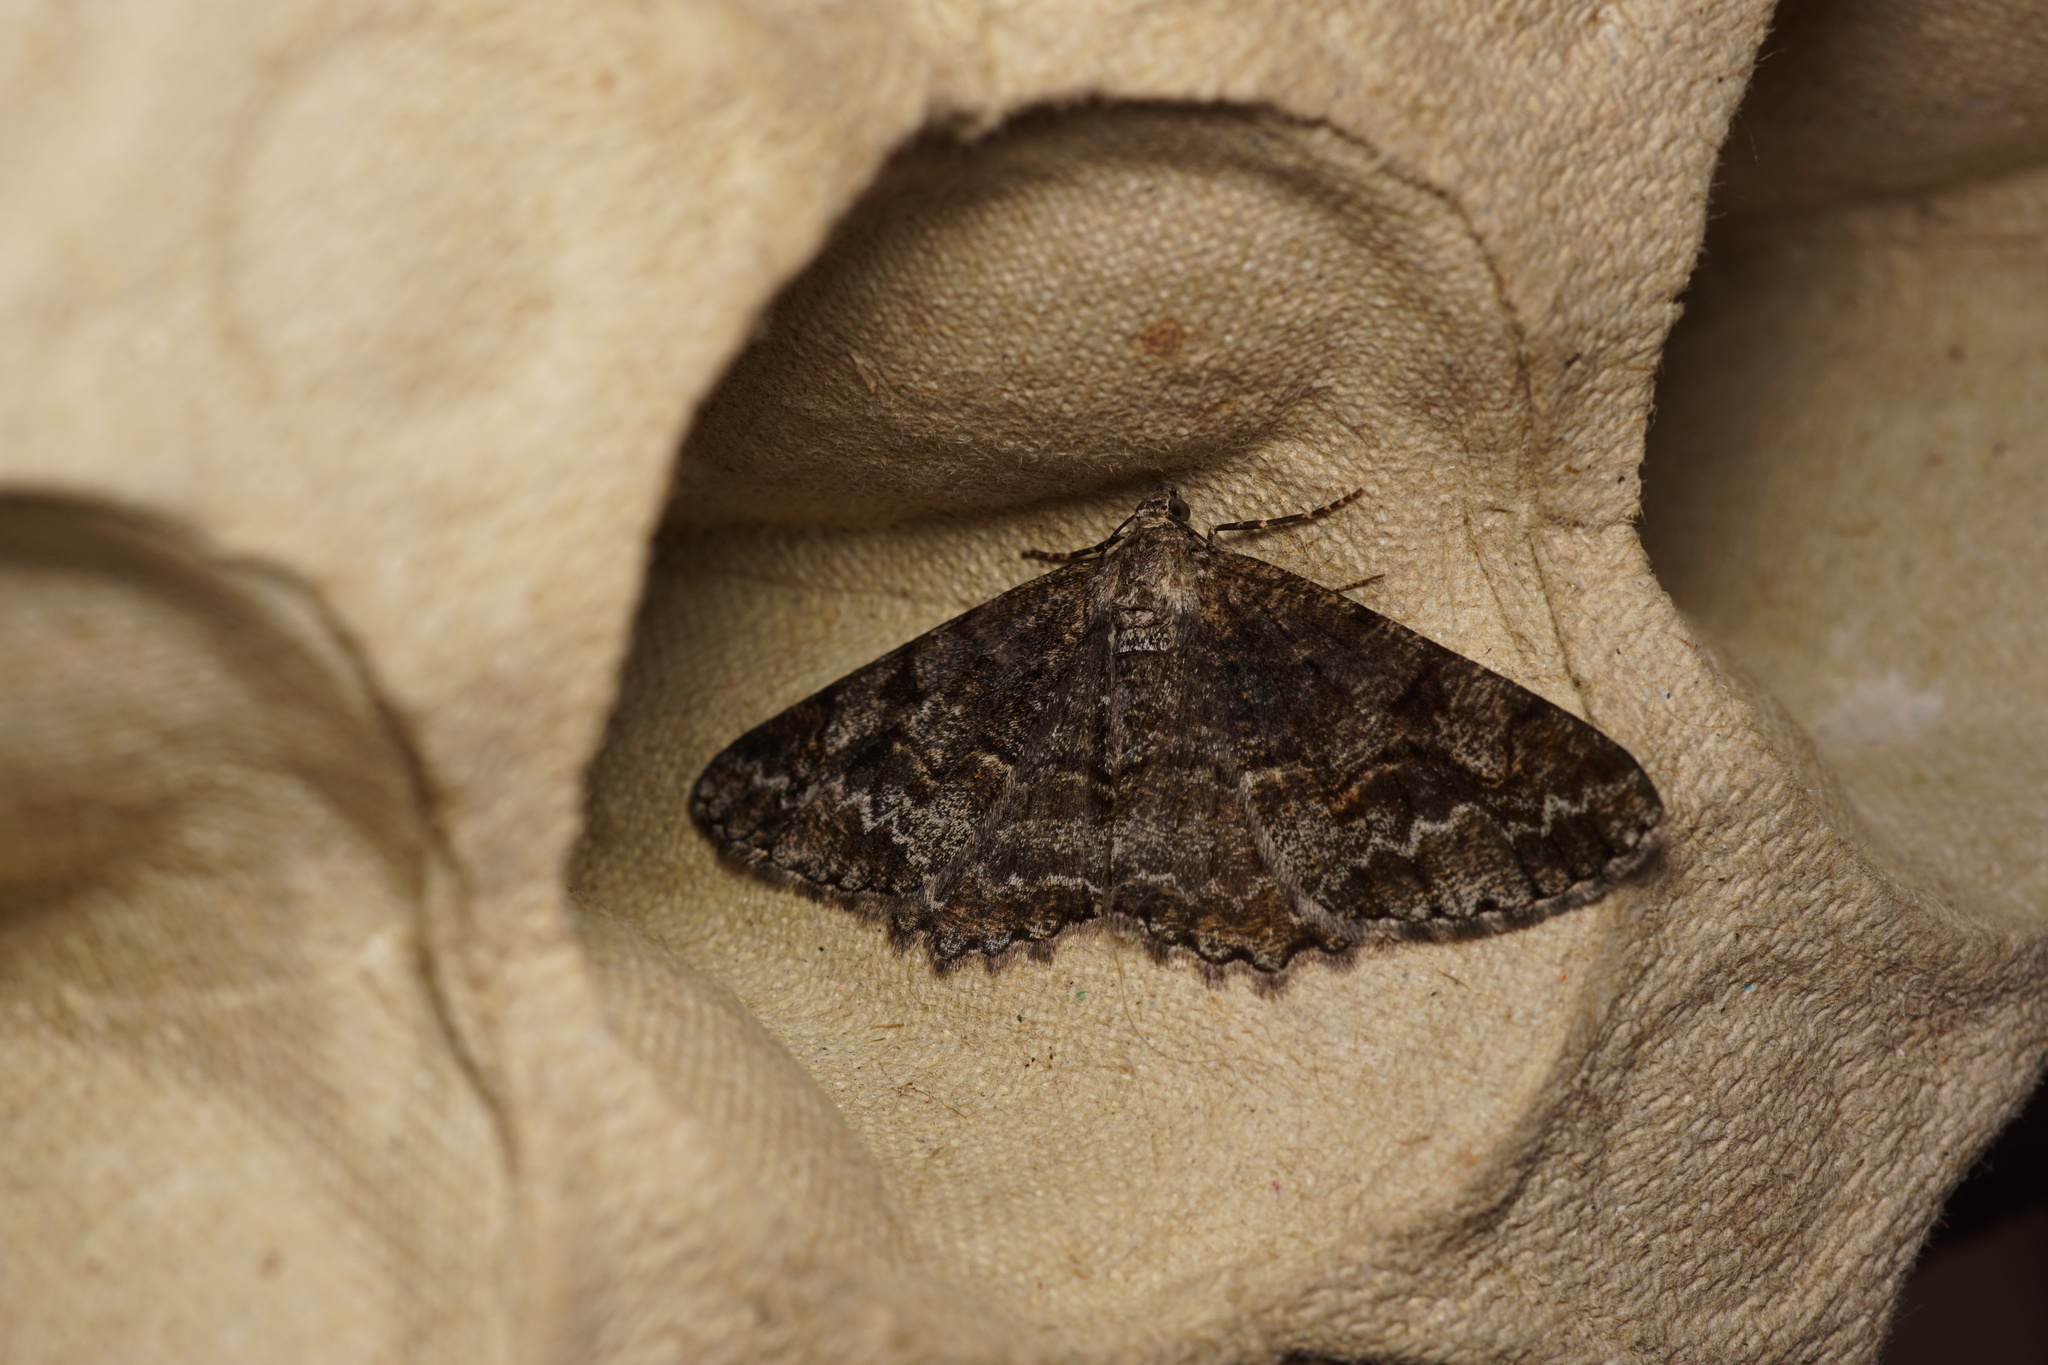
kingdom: Animalia
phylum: Arthropoda
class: Insecta
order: Lepidoptera
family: Geometridae
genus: Alcis
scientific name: Alcis repandata
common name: Mottled beauty
